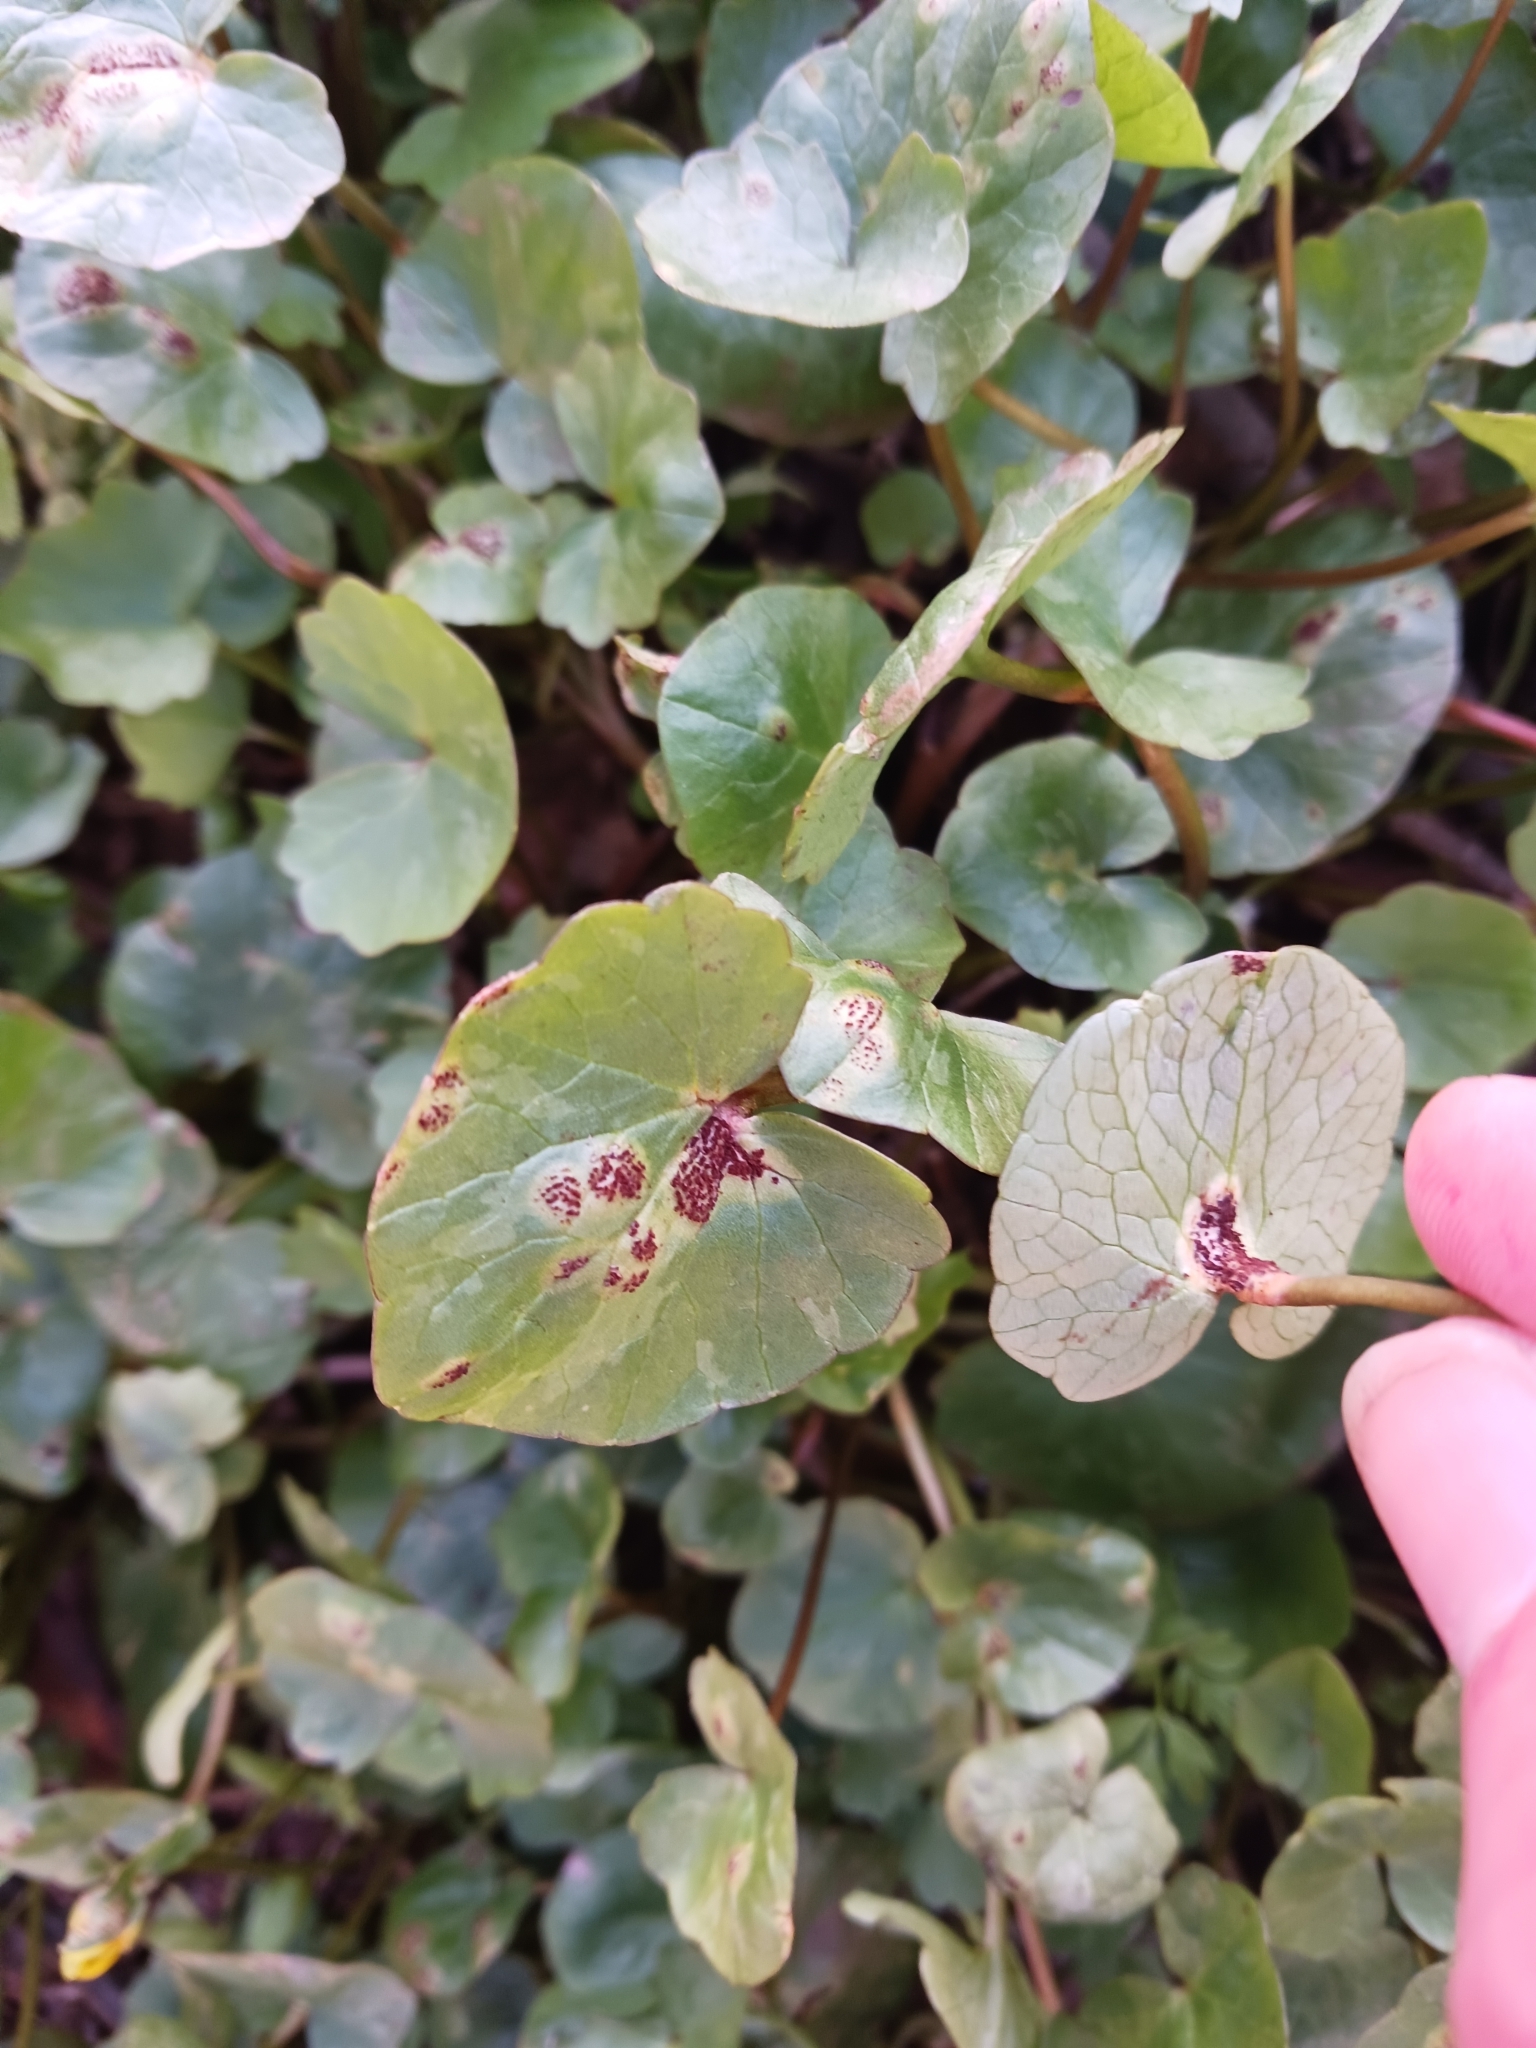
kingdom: Fungi
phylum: Basidiomycota
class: Pucciniomycetes
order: Pucciniales
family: Pucciniaceae
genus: Uromyces
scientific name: Uromyces ficariae
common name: Bitter chocolate rust
